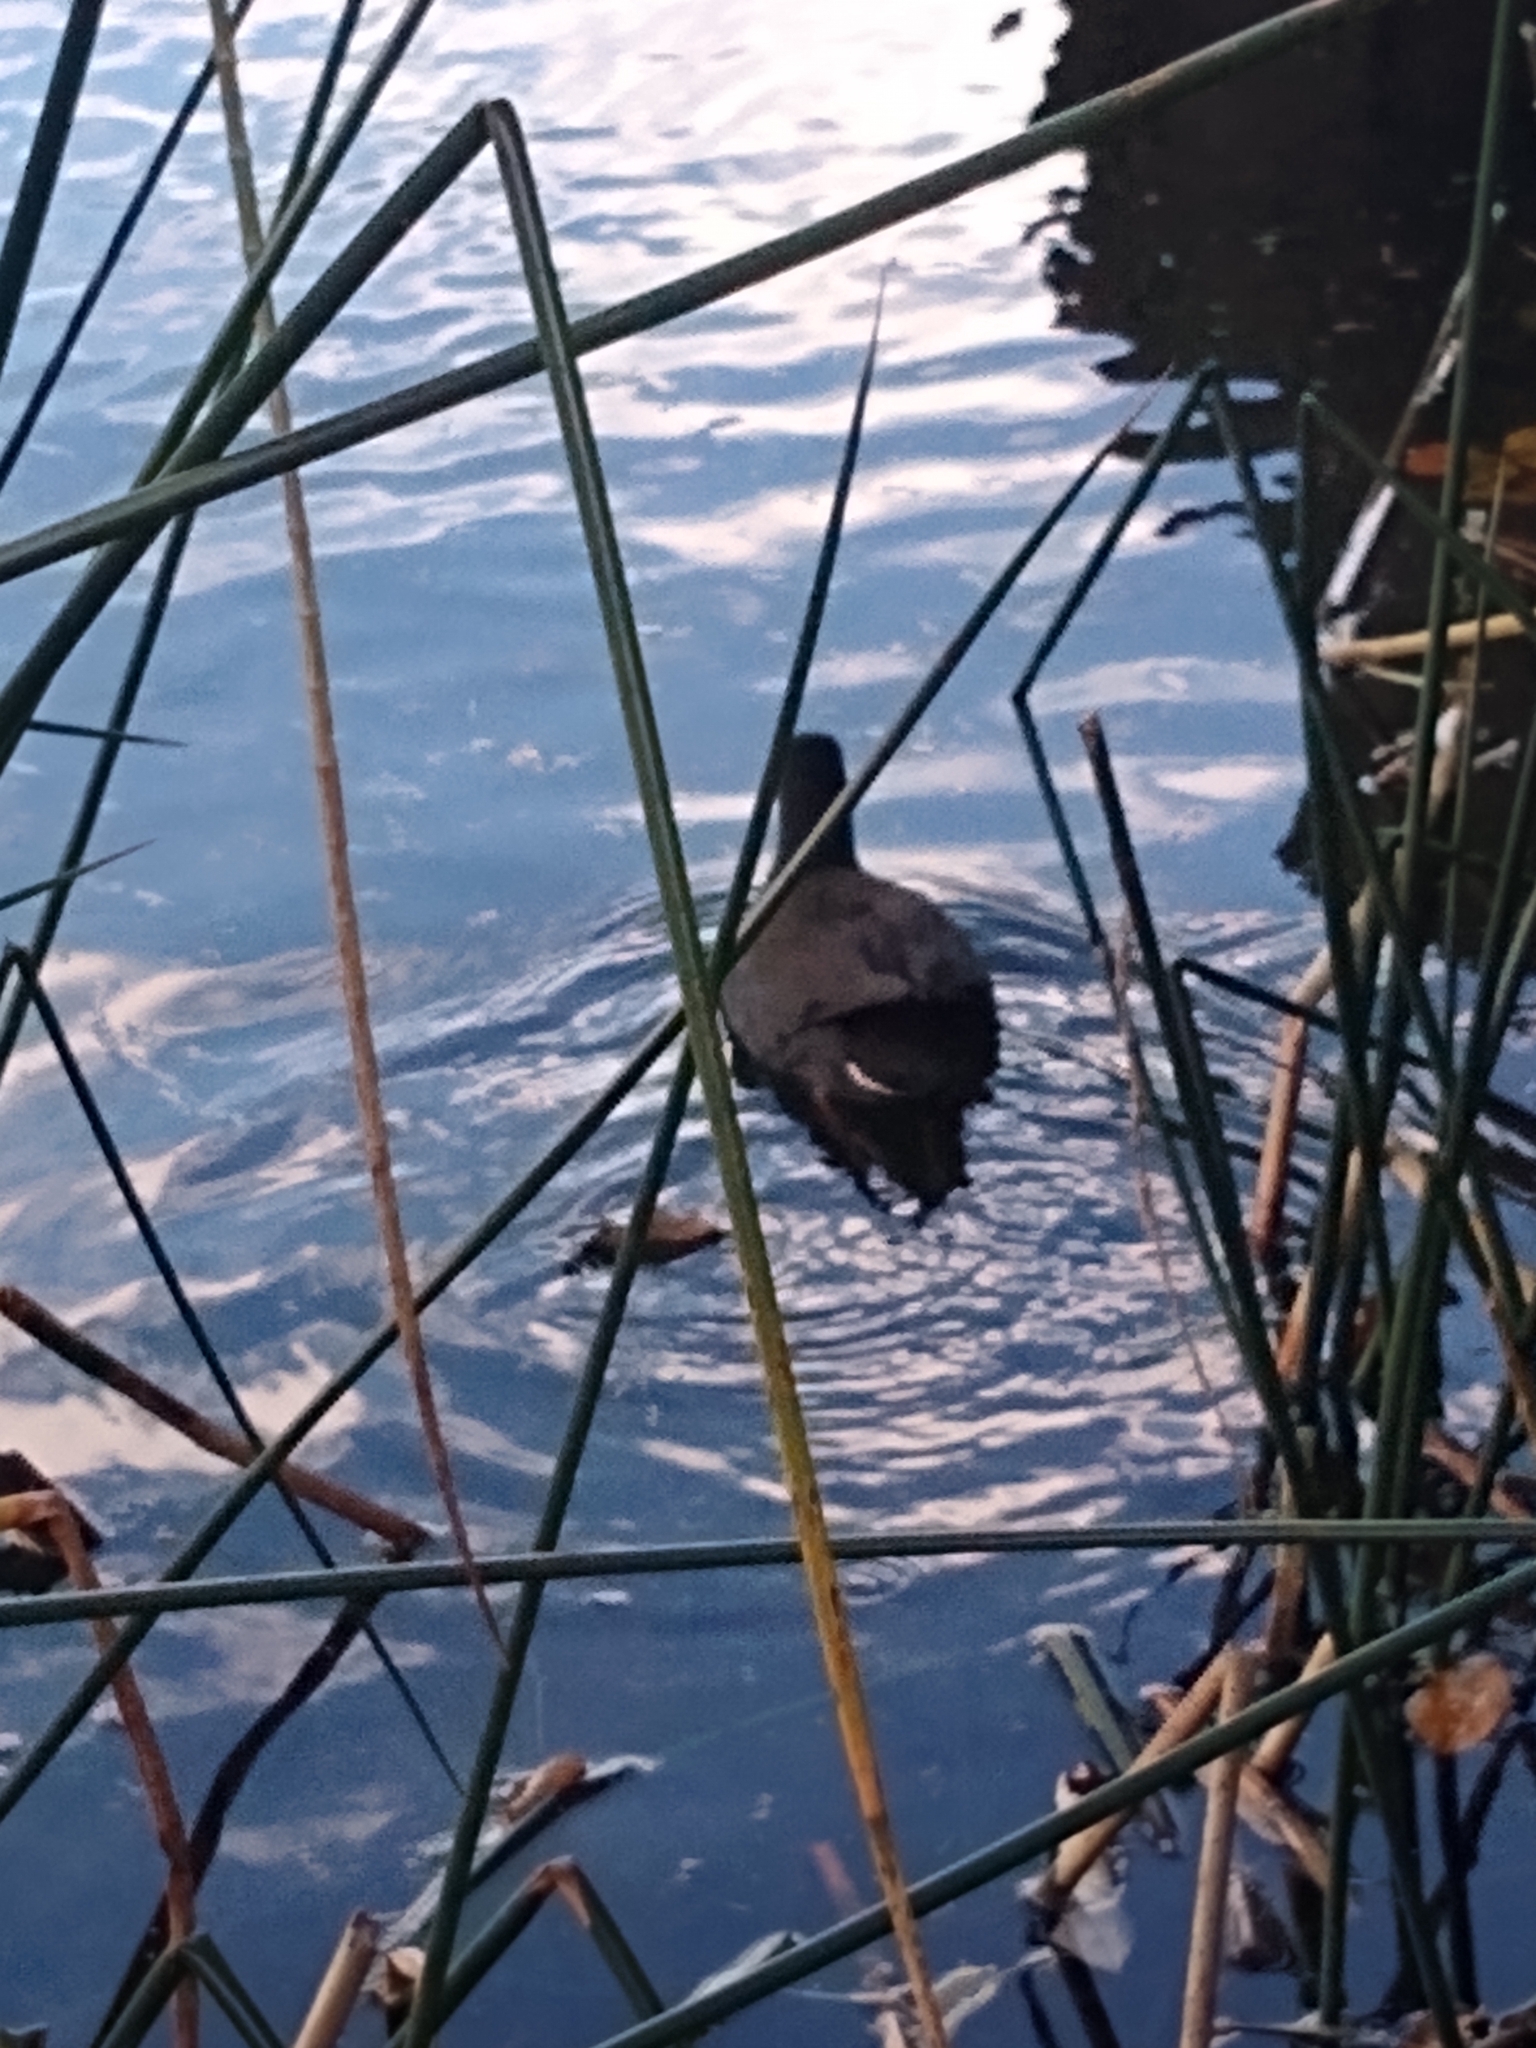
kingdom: Animalia
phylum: Chordata
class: Aves
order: Gruiformes
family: Rallidae
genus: Gallinula
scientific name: Gallinula tenebrosa
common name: Dusky moorhen
